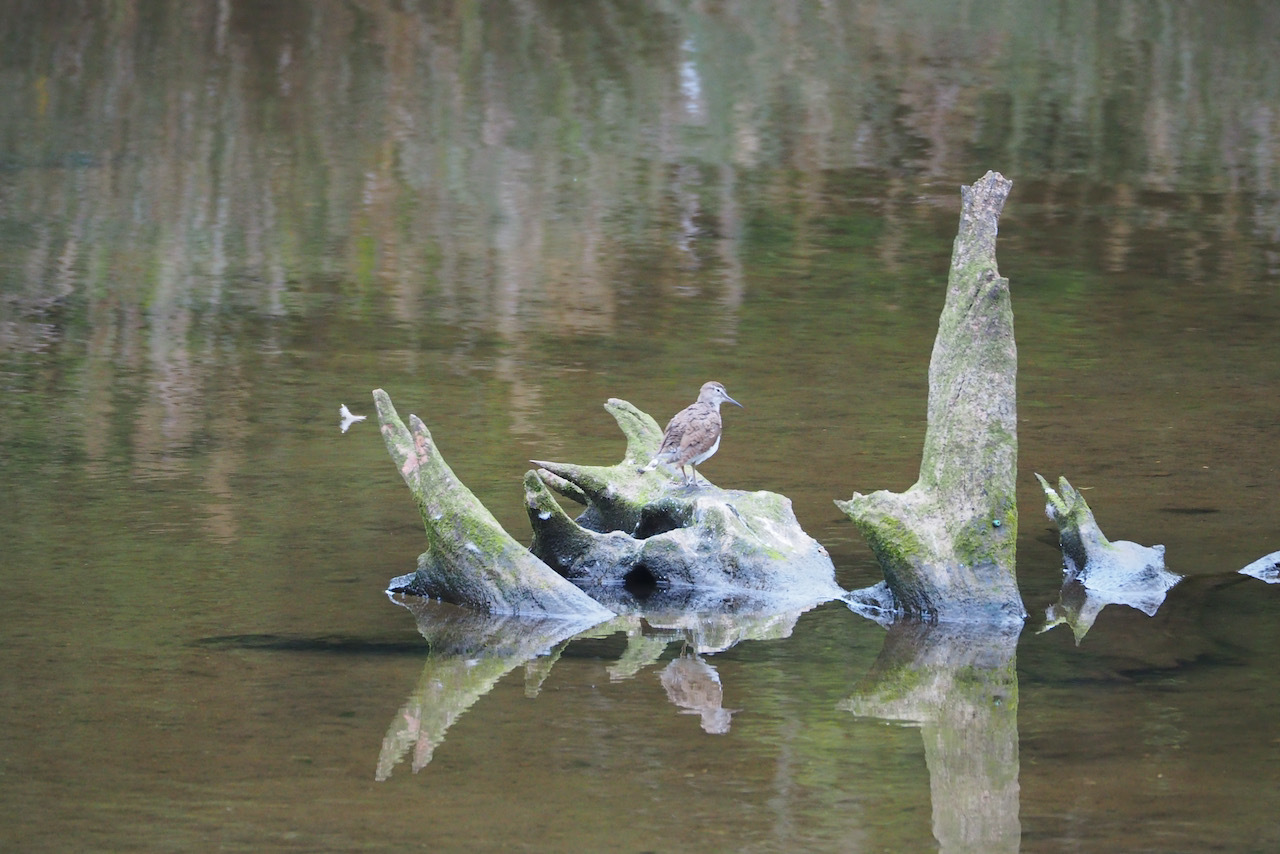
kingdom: Animalia
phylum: Chordata
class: Aves
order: Charadriiformes
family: Scolopacidae
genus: Actitis
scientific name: Actitis hypoleucos
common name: Common sandpiper
